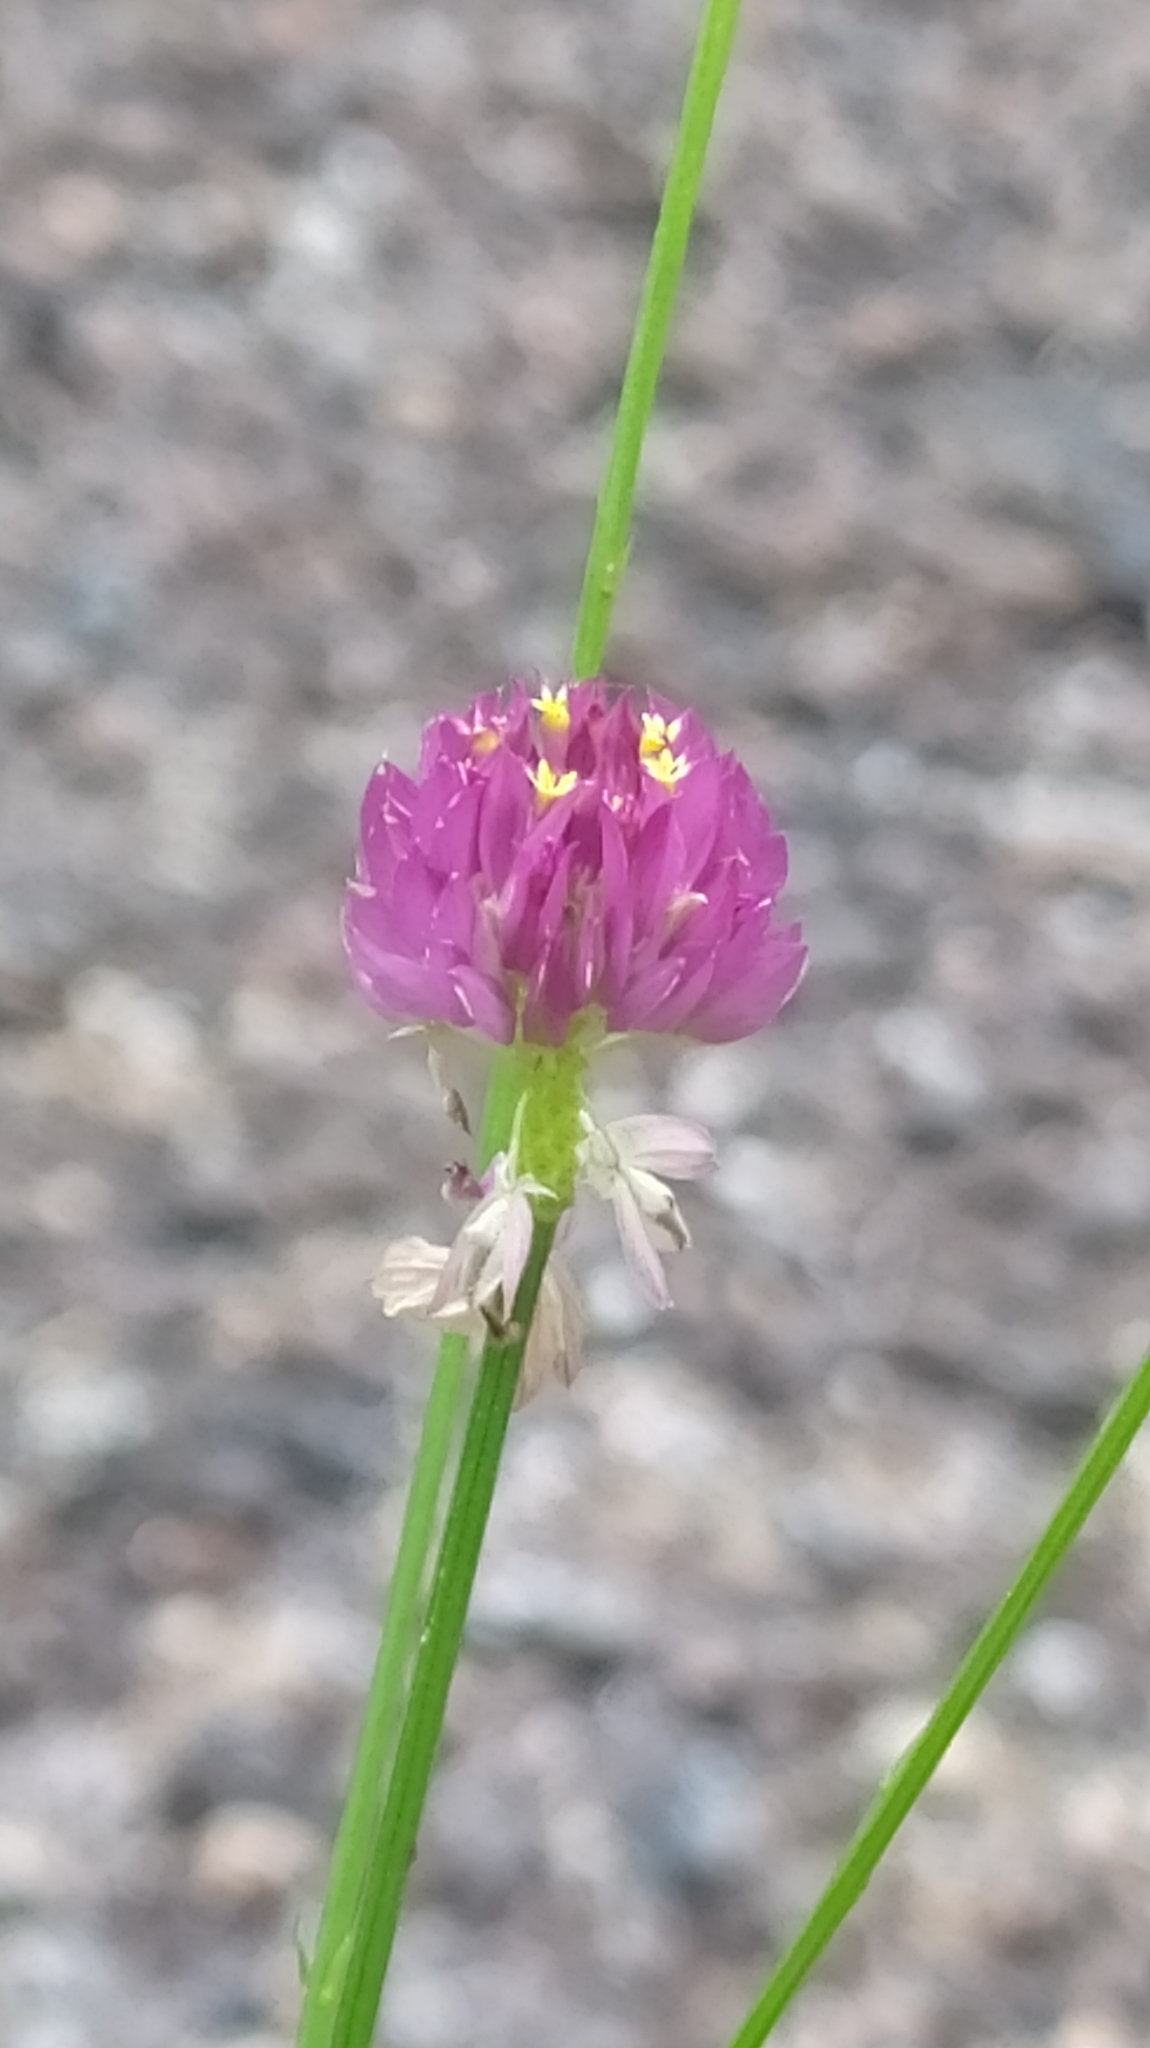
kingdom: Plantae
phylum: Tracheophyta
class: Magnoliopsida
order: Fabales
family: Polygalaceae
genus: Polygala
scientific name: Polygala longicaulis
